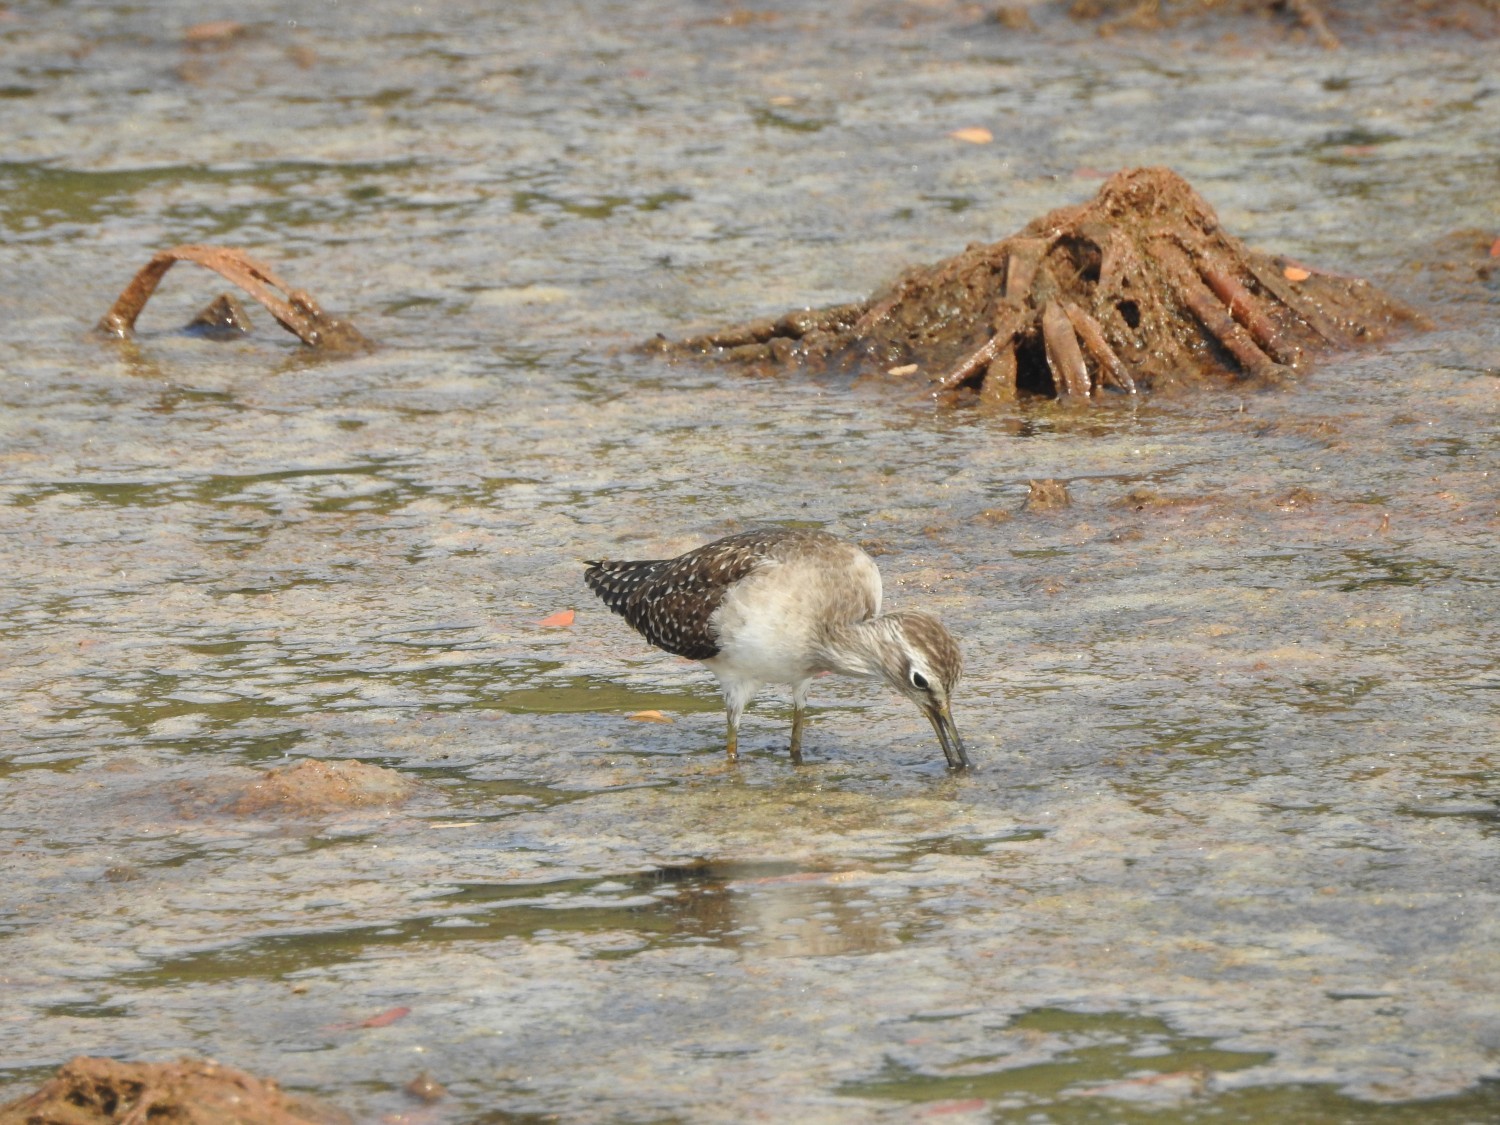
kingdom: Animalia
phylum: Chordata
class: Aves
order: Charadriiformes
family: Scolopacidae
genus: Tringa
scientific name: Tringa glareola
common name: Wood sandpiper
